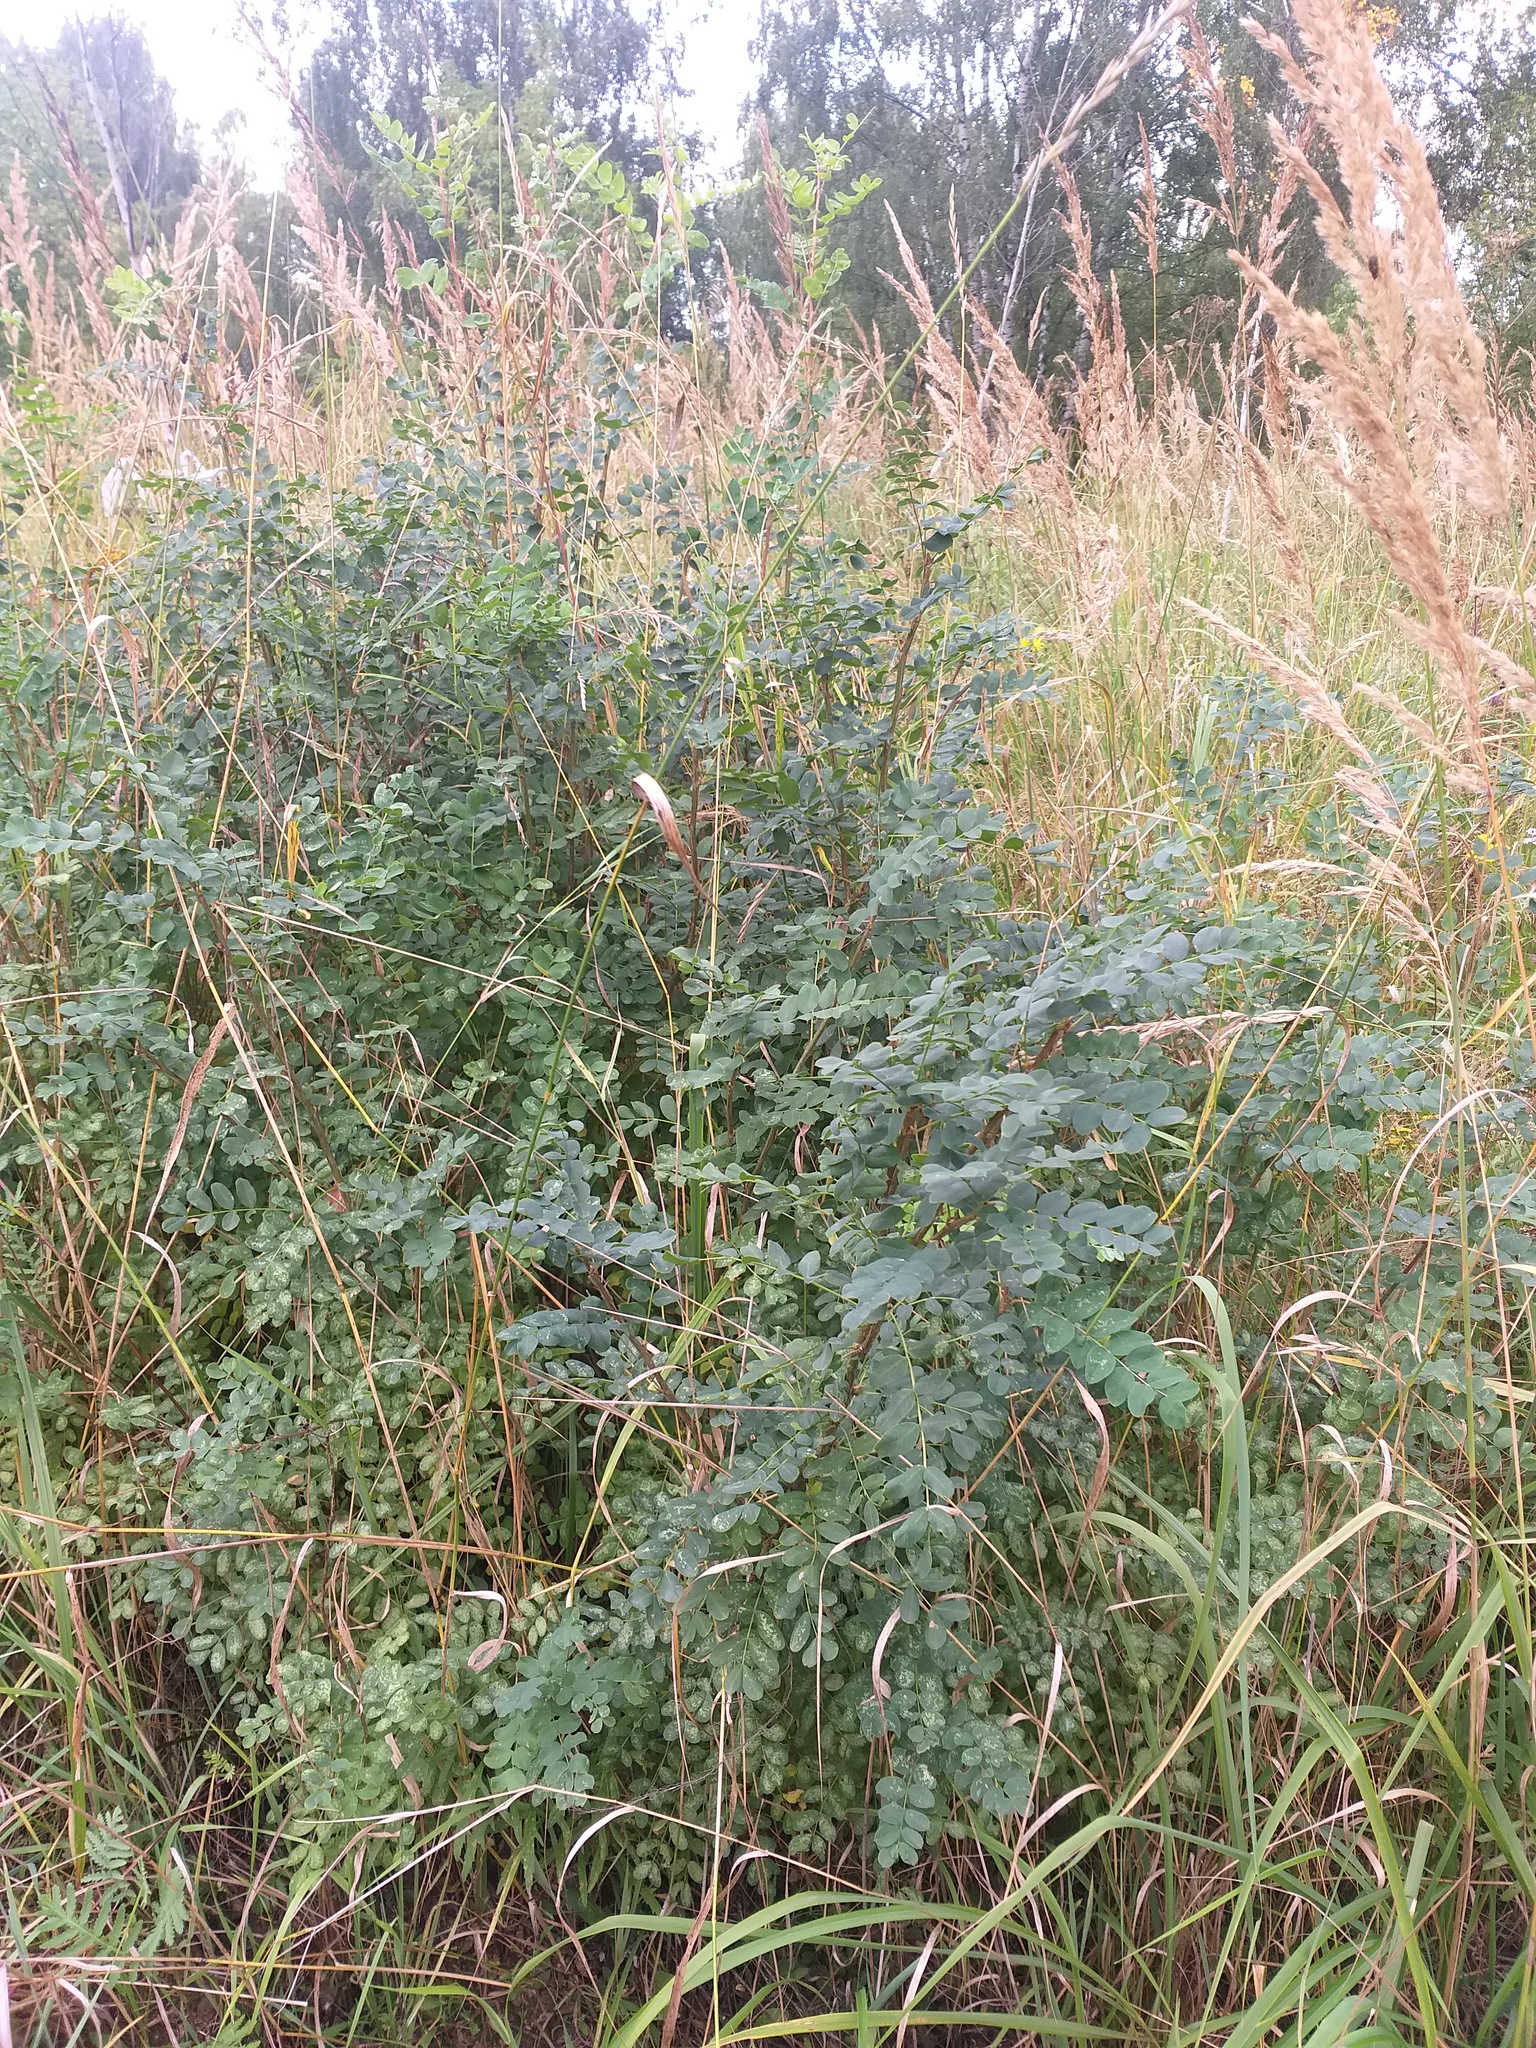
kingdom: Plantae
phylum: Tracheophyta
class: Magnoliopsida
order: Fabales
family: Fabaceae
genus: Caragana
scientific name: Caragana arborescens
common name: Siberian peashrub
